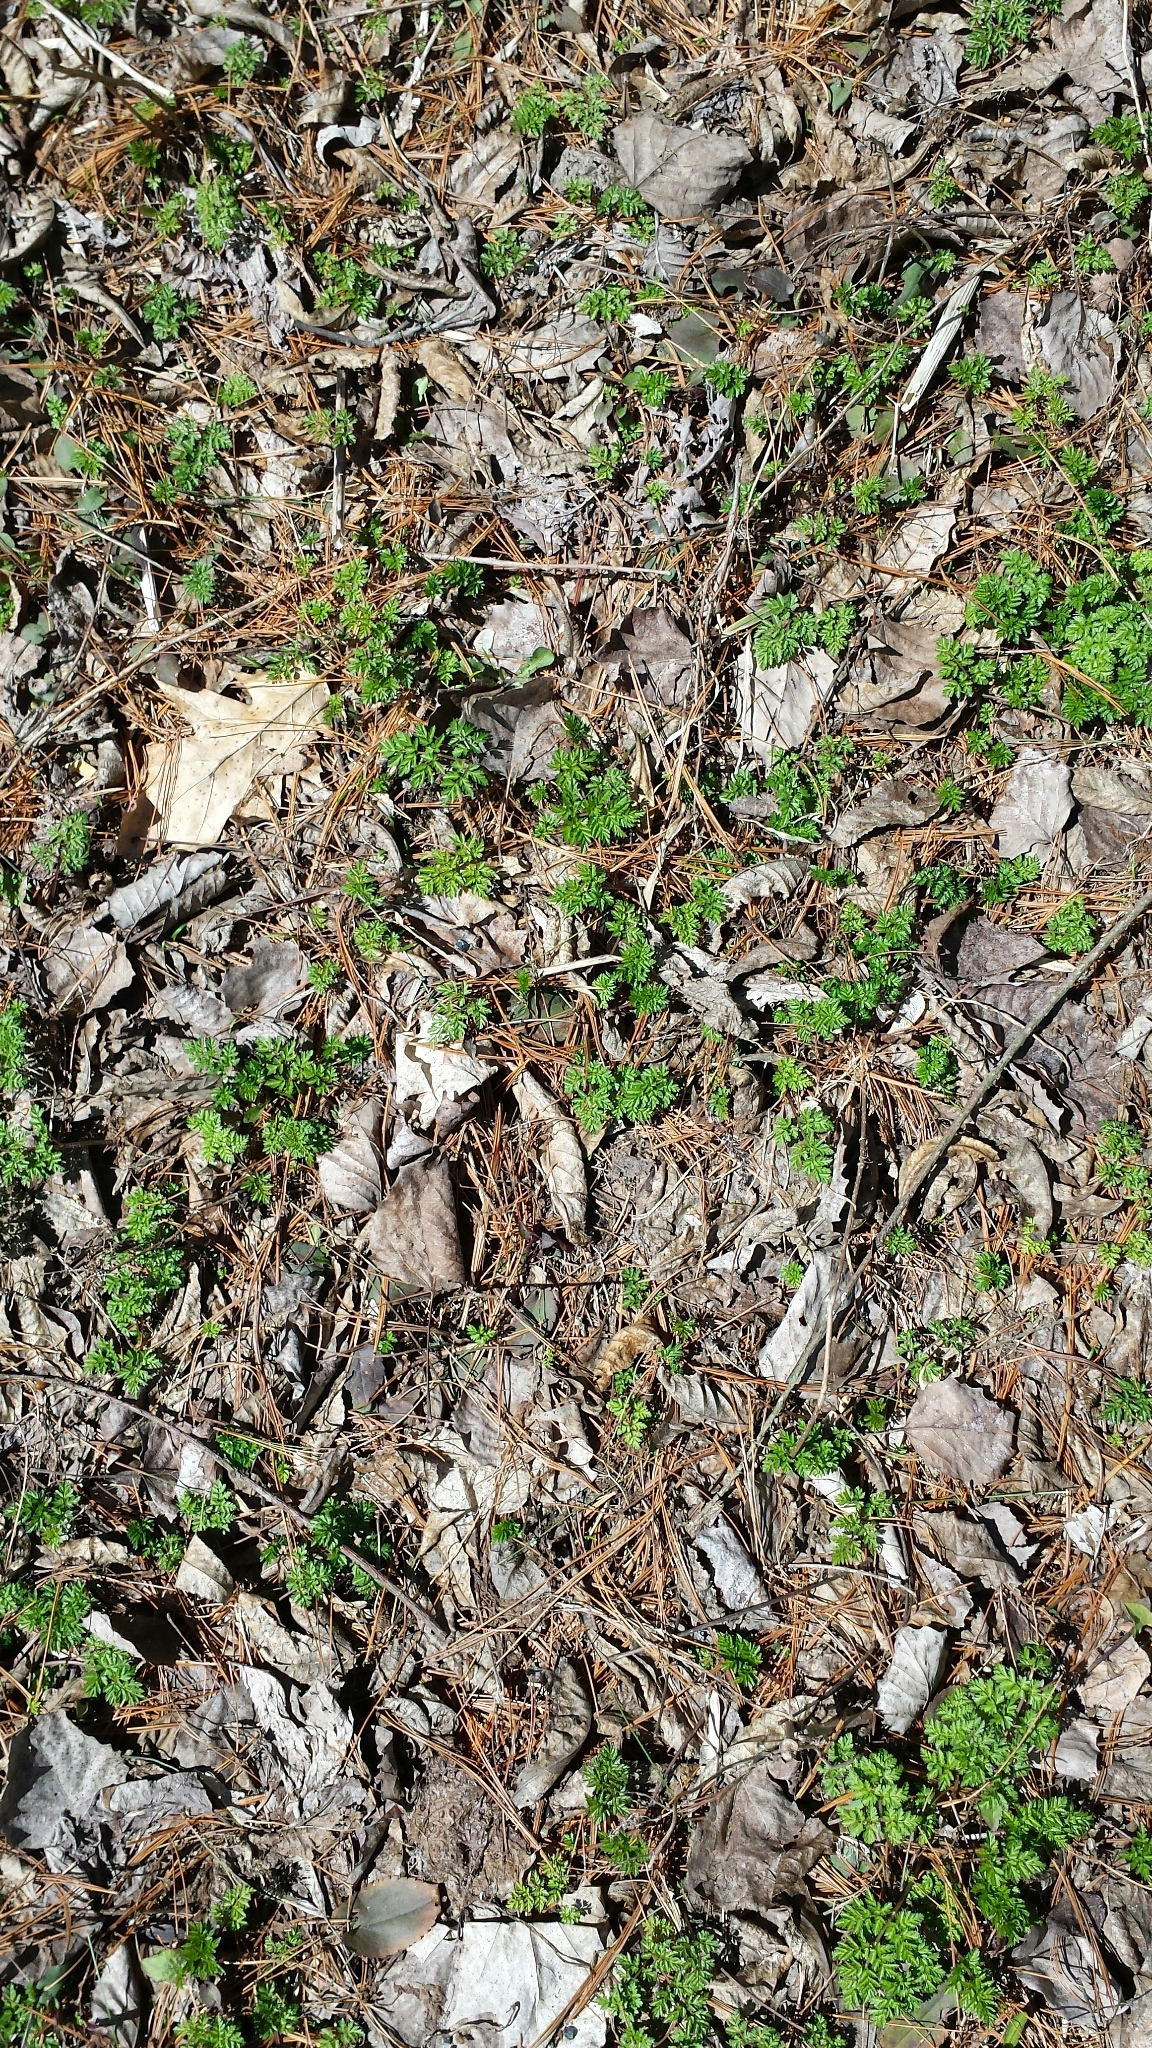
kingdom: Plantae
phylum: Tracheophyta
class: Magnoliopsida
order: Apiales
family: Apiaceae
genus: Anthriscus
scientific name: Anthriscus sylvestris
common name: Cow parsley
